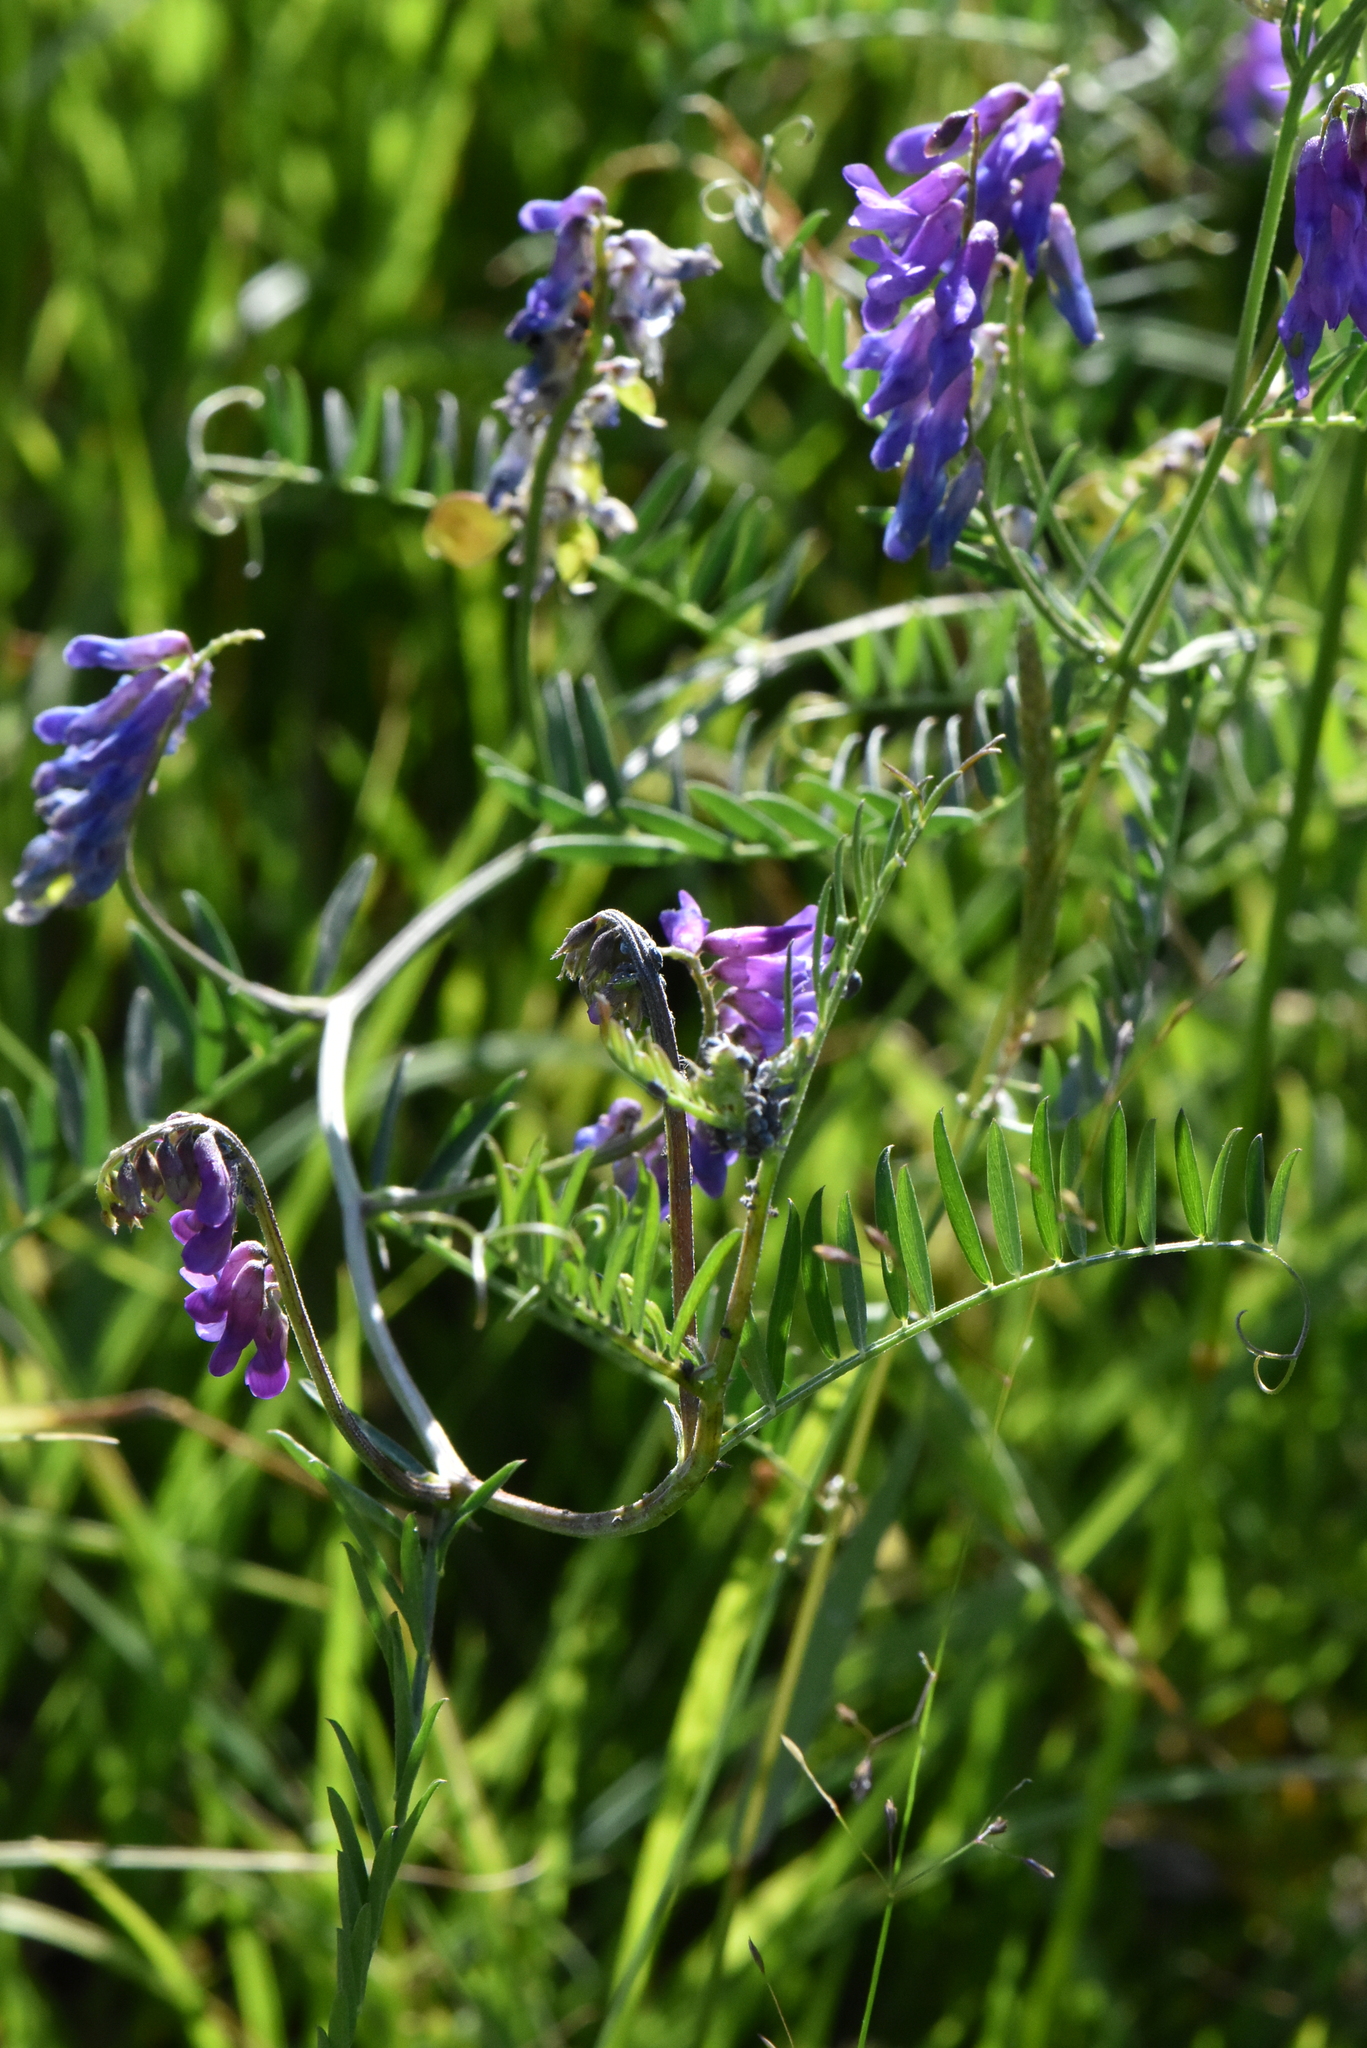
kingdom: Plantae
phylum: Tracheophyta
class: Magnoliopsida
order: Fabales
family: Fabaceae
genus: Vicia
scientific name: Vicia cracca
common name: Bird vetch
